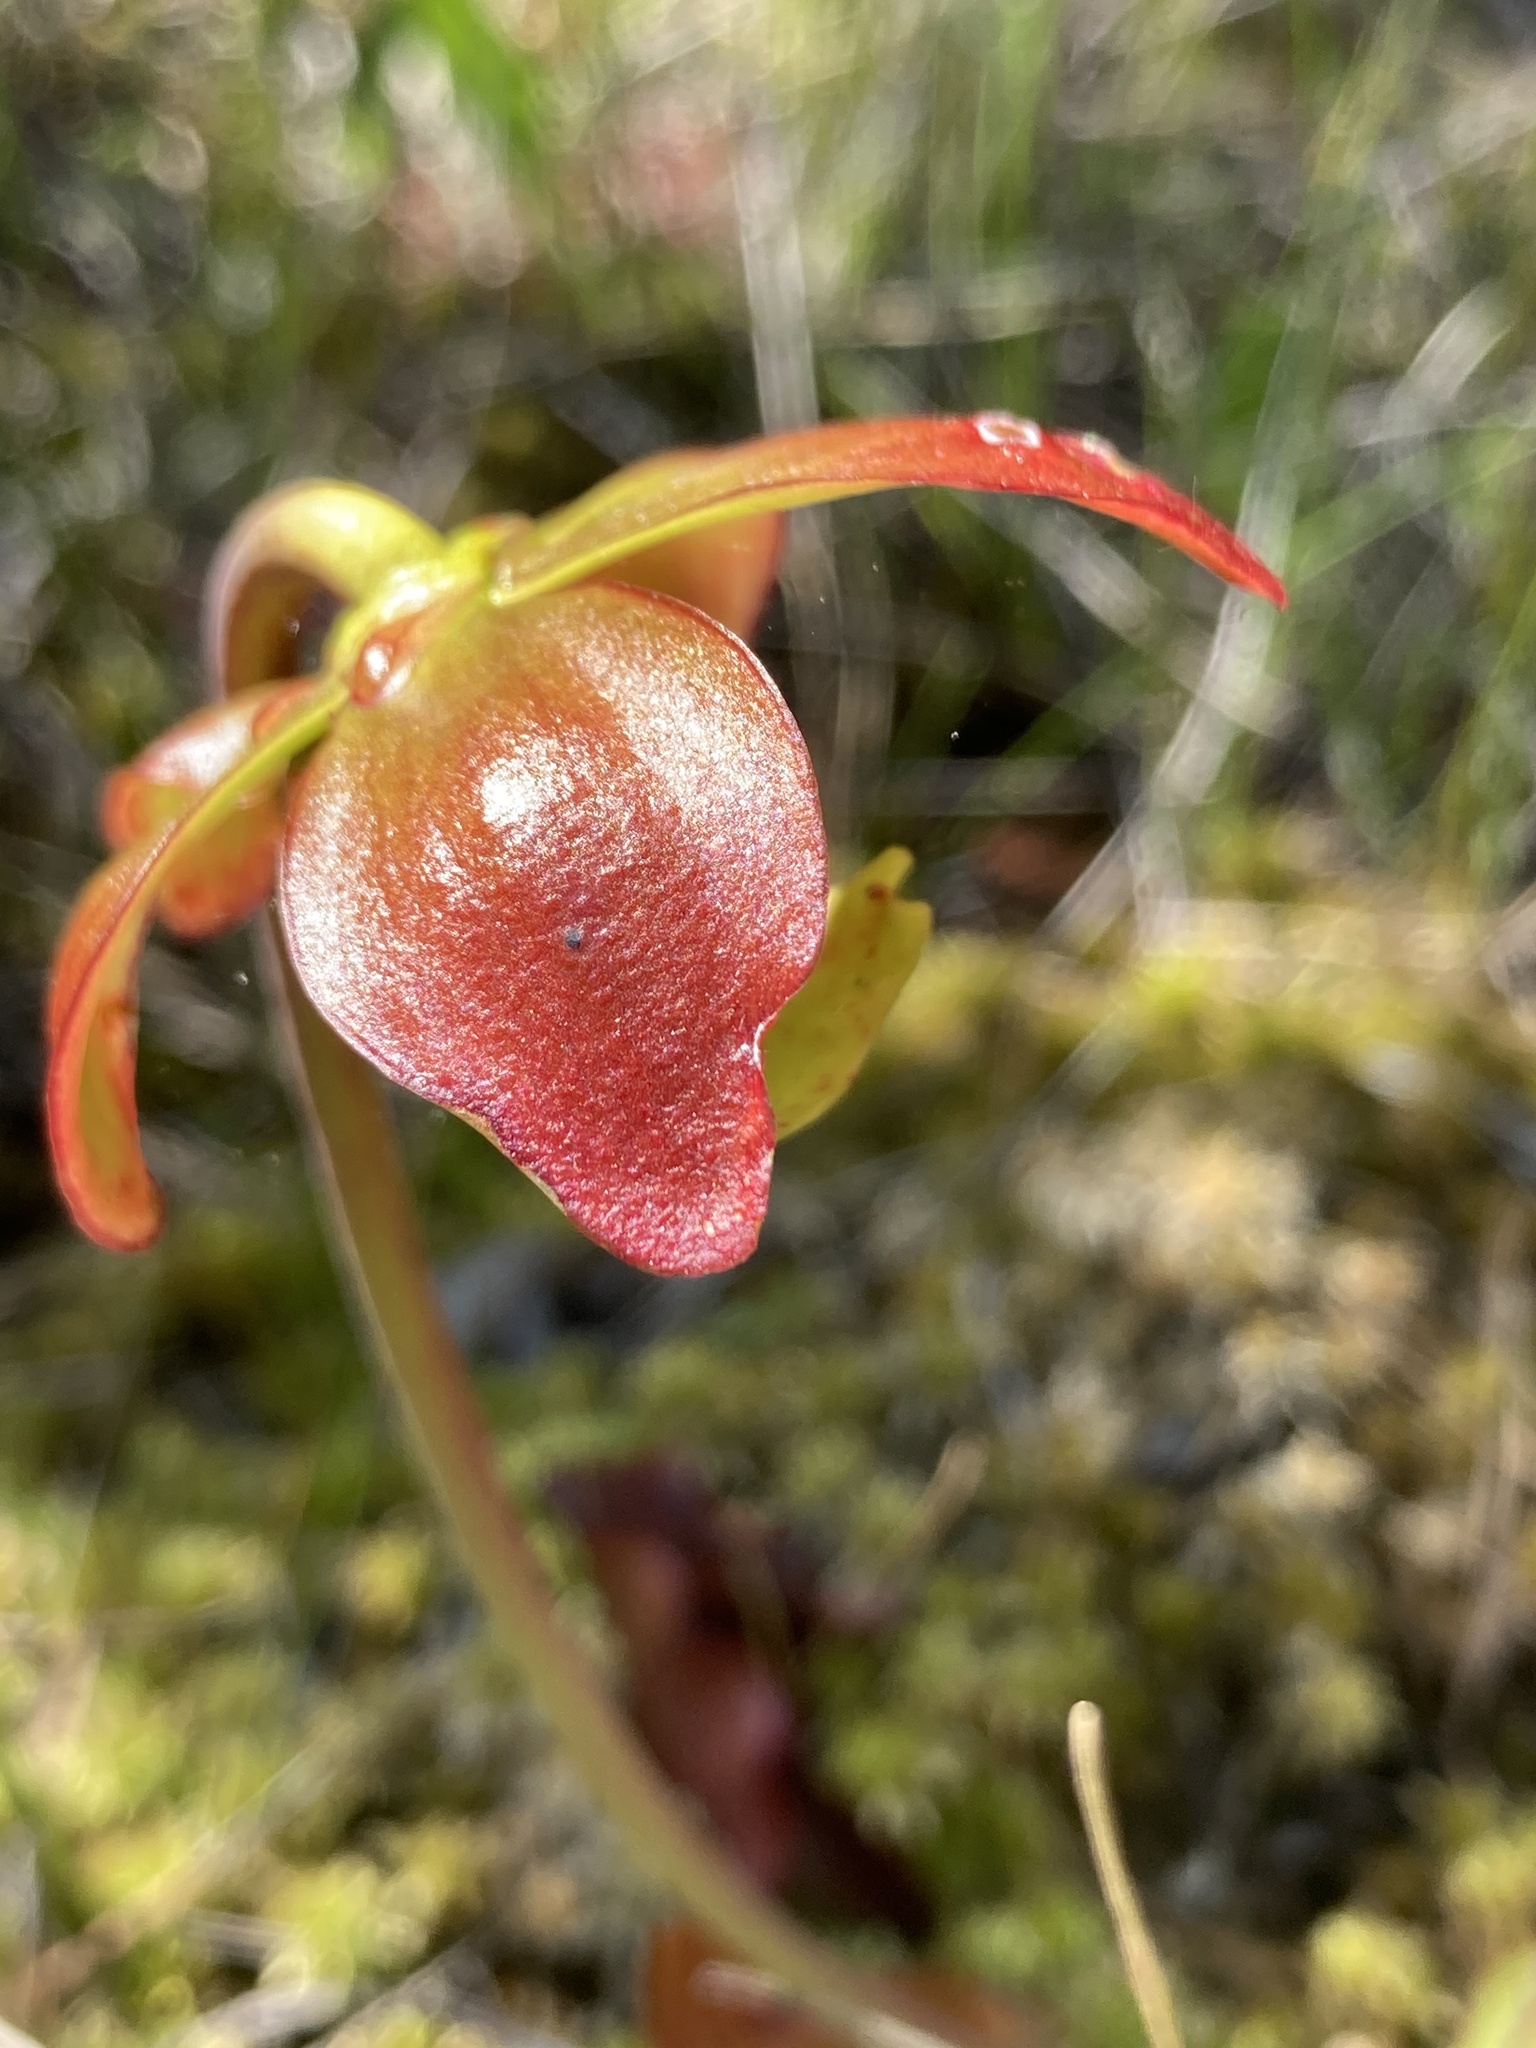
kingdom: Plantae
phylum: Tracheophyta
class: Magnoliopsida
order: Ericales
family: Sarraceniaceae
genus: Sarracenia
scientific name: Sarracenia purpurea
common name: Pitcherplant
